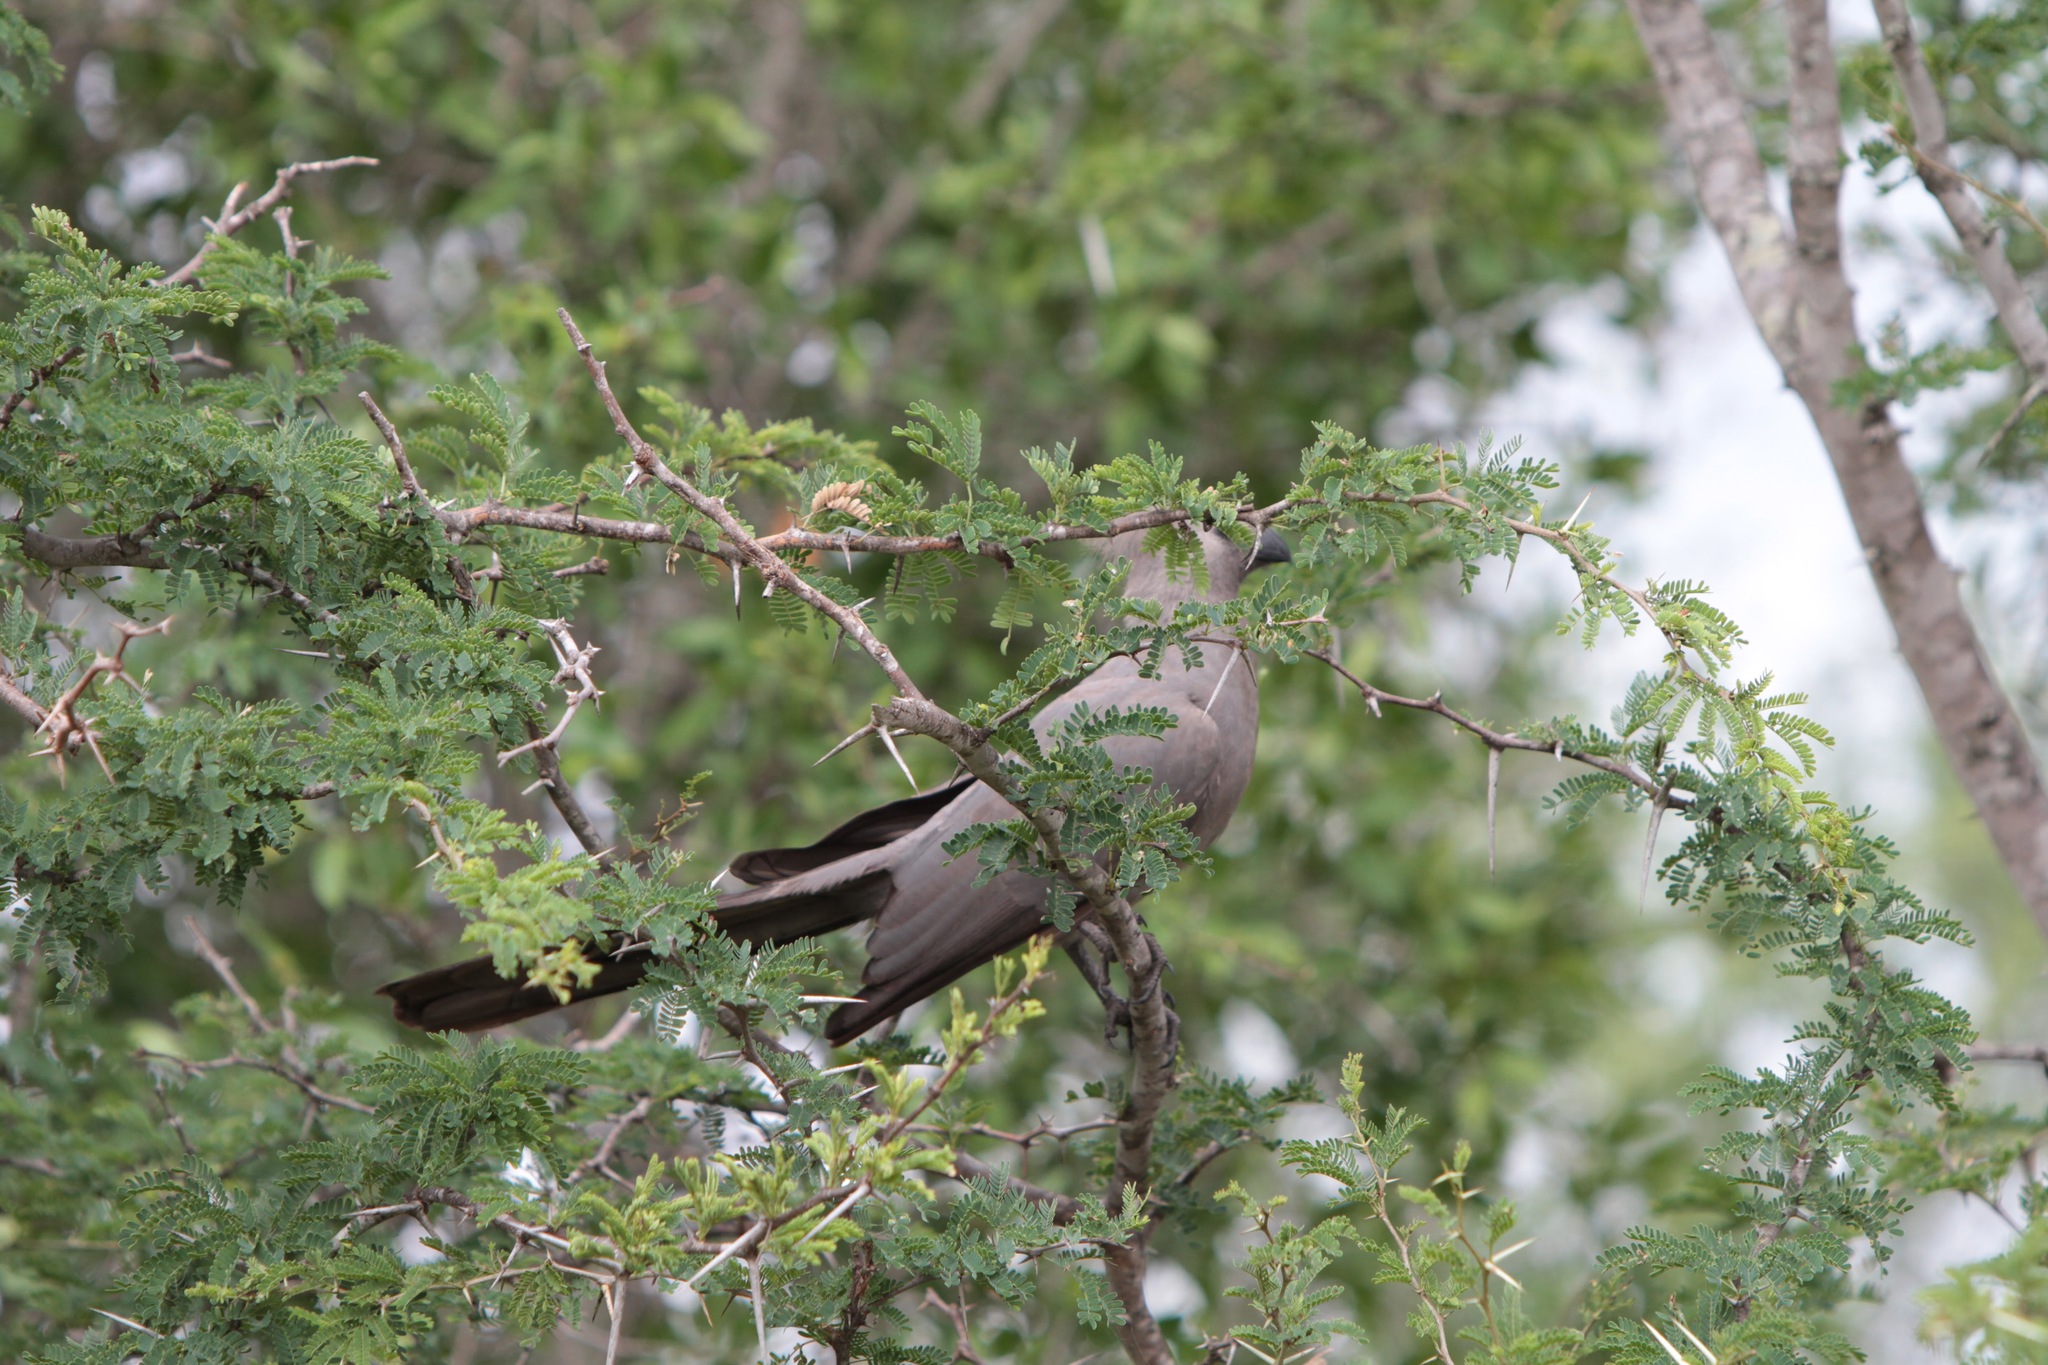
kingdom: Animalia
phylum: Chordata
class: Aves
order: Musophagiformes
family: Musophagidae
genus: Corythaixoides
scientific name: Corythaixoides concolor
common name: Grey go-away-bird
